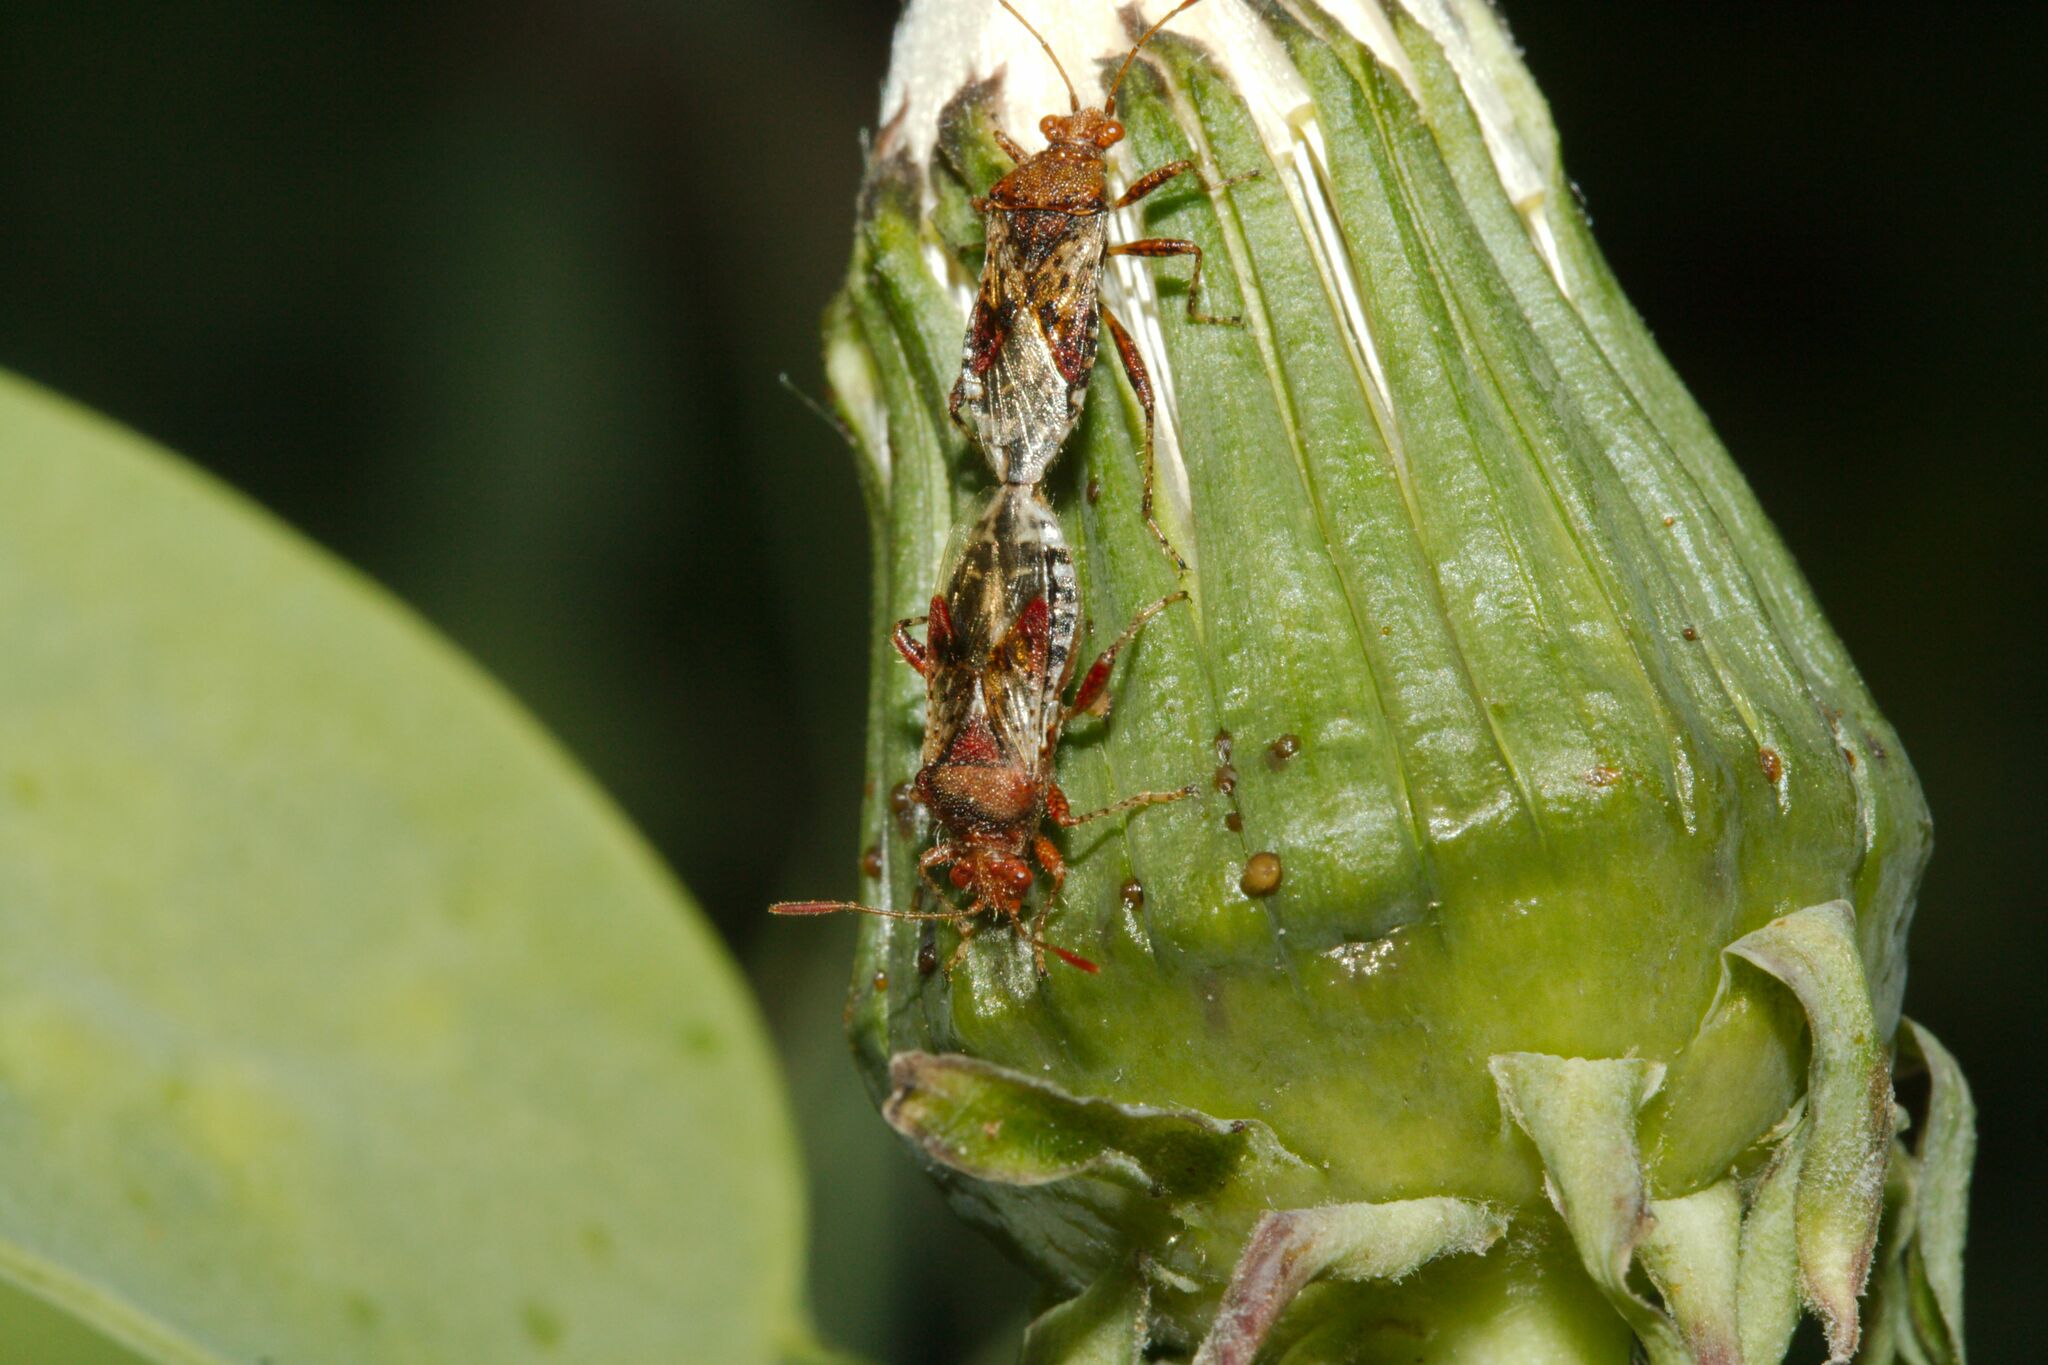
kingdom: Animalia
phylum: Arthropoda
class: Insecta
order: Hemiptera
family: Rhopalidae
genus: Rhopalus
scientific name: Rhopalus subrufus
